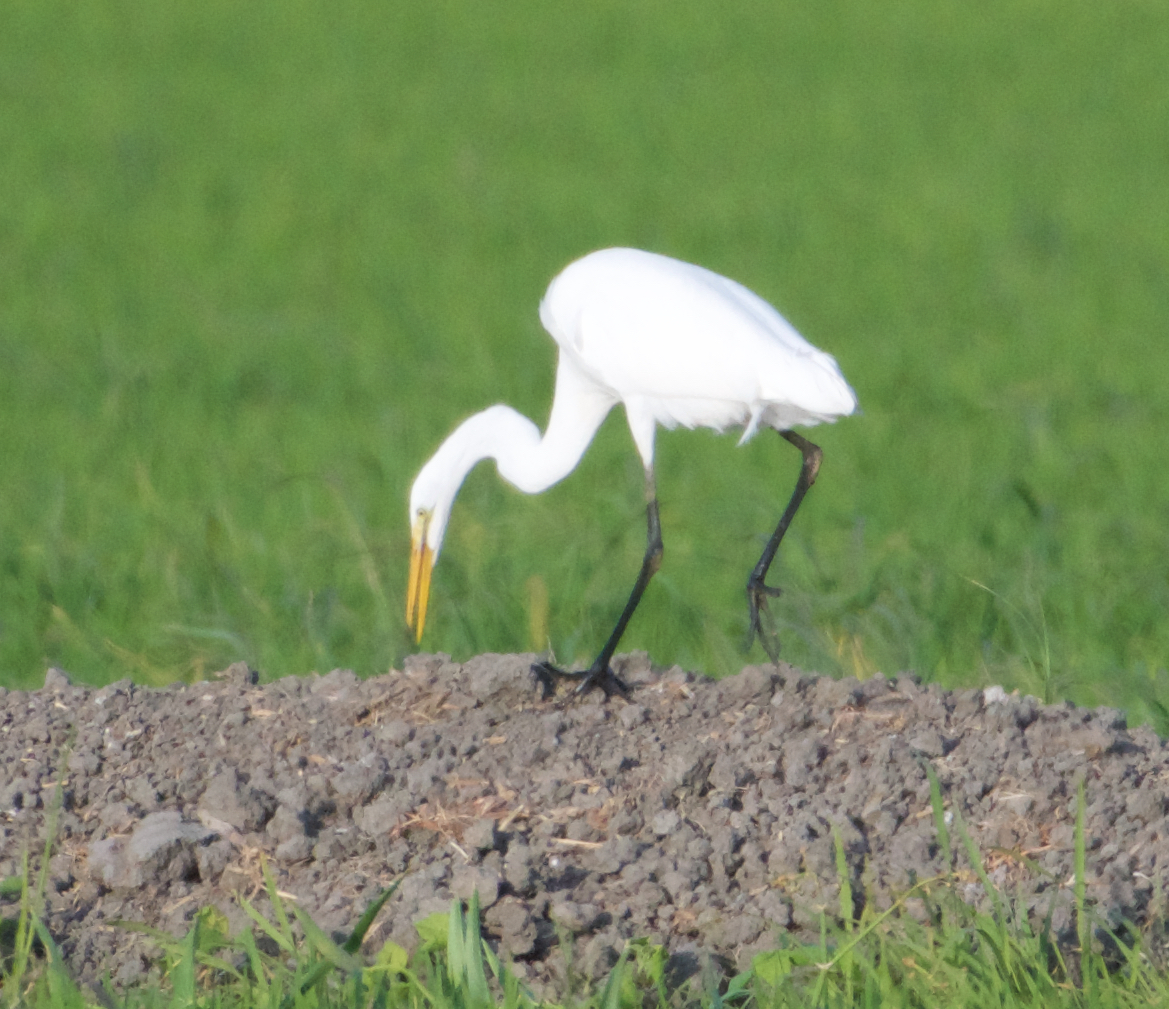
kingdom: Animalia
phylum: Chordata
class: Aves
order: Pelecaniformes
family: Ardeidae
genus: Ardea
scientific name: Ardea alba
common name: Great egret
